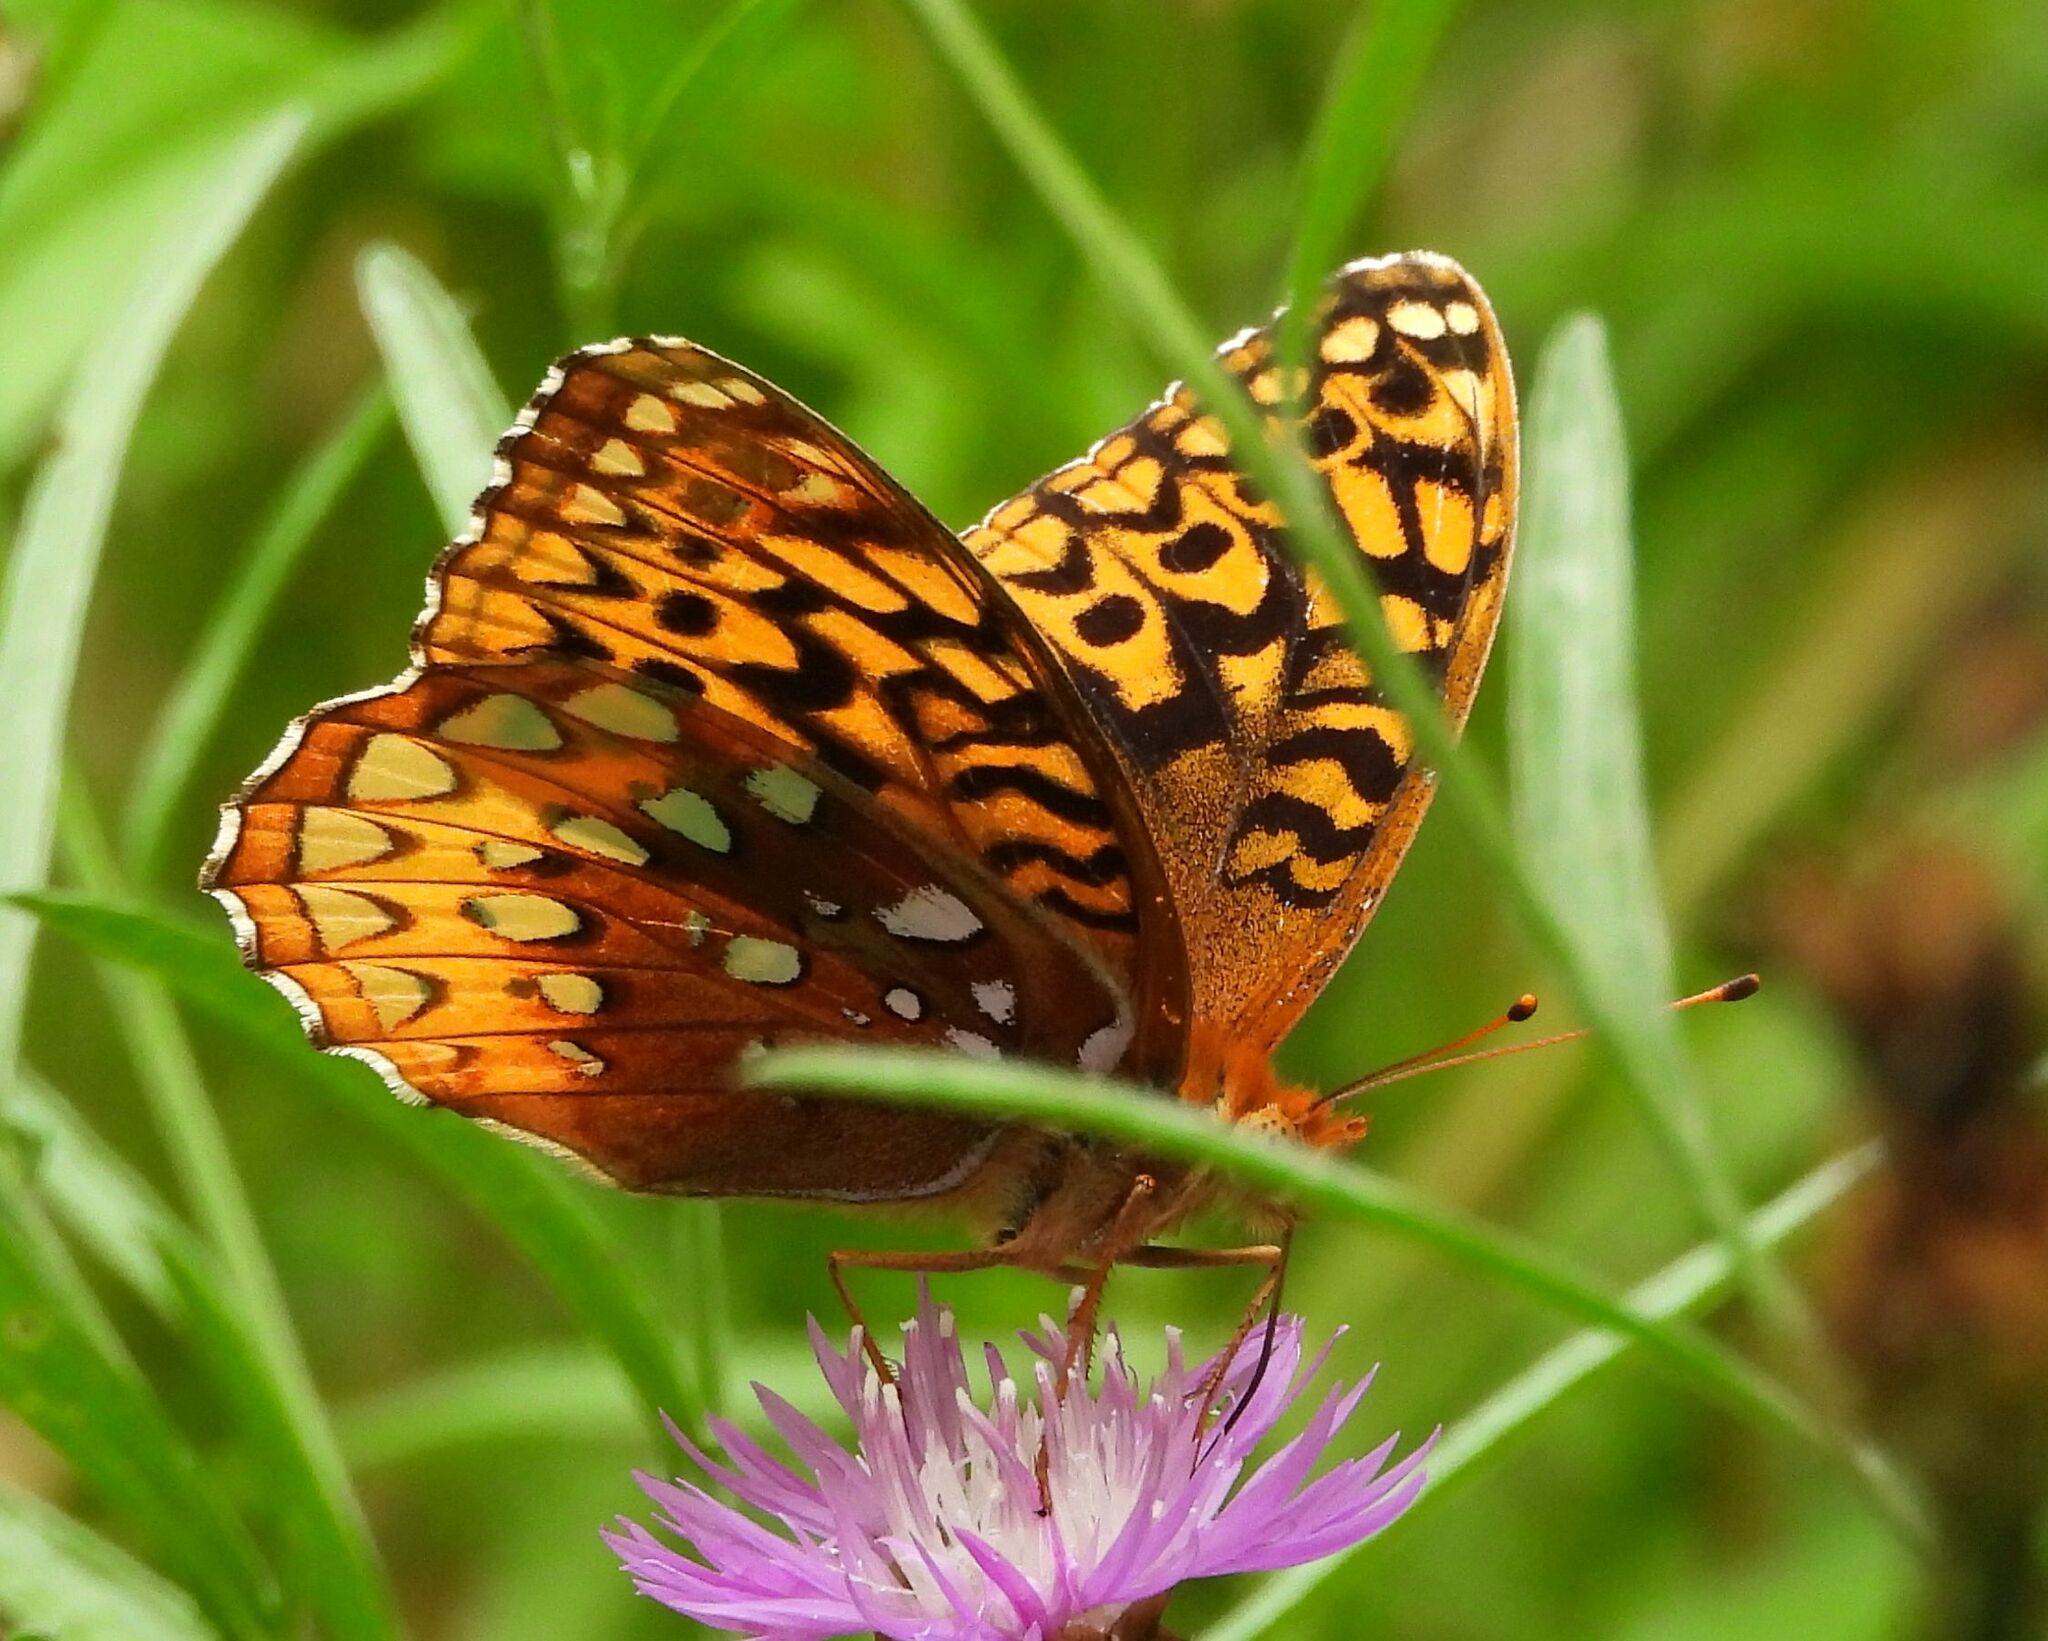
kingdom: Animalia
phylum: Arthropoda
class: Insecta
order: Lepidoptera
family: Nymphalidae
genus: Speyeria
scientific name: Speyeria cybele
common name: Great spangled fritillary
